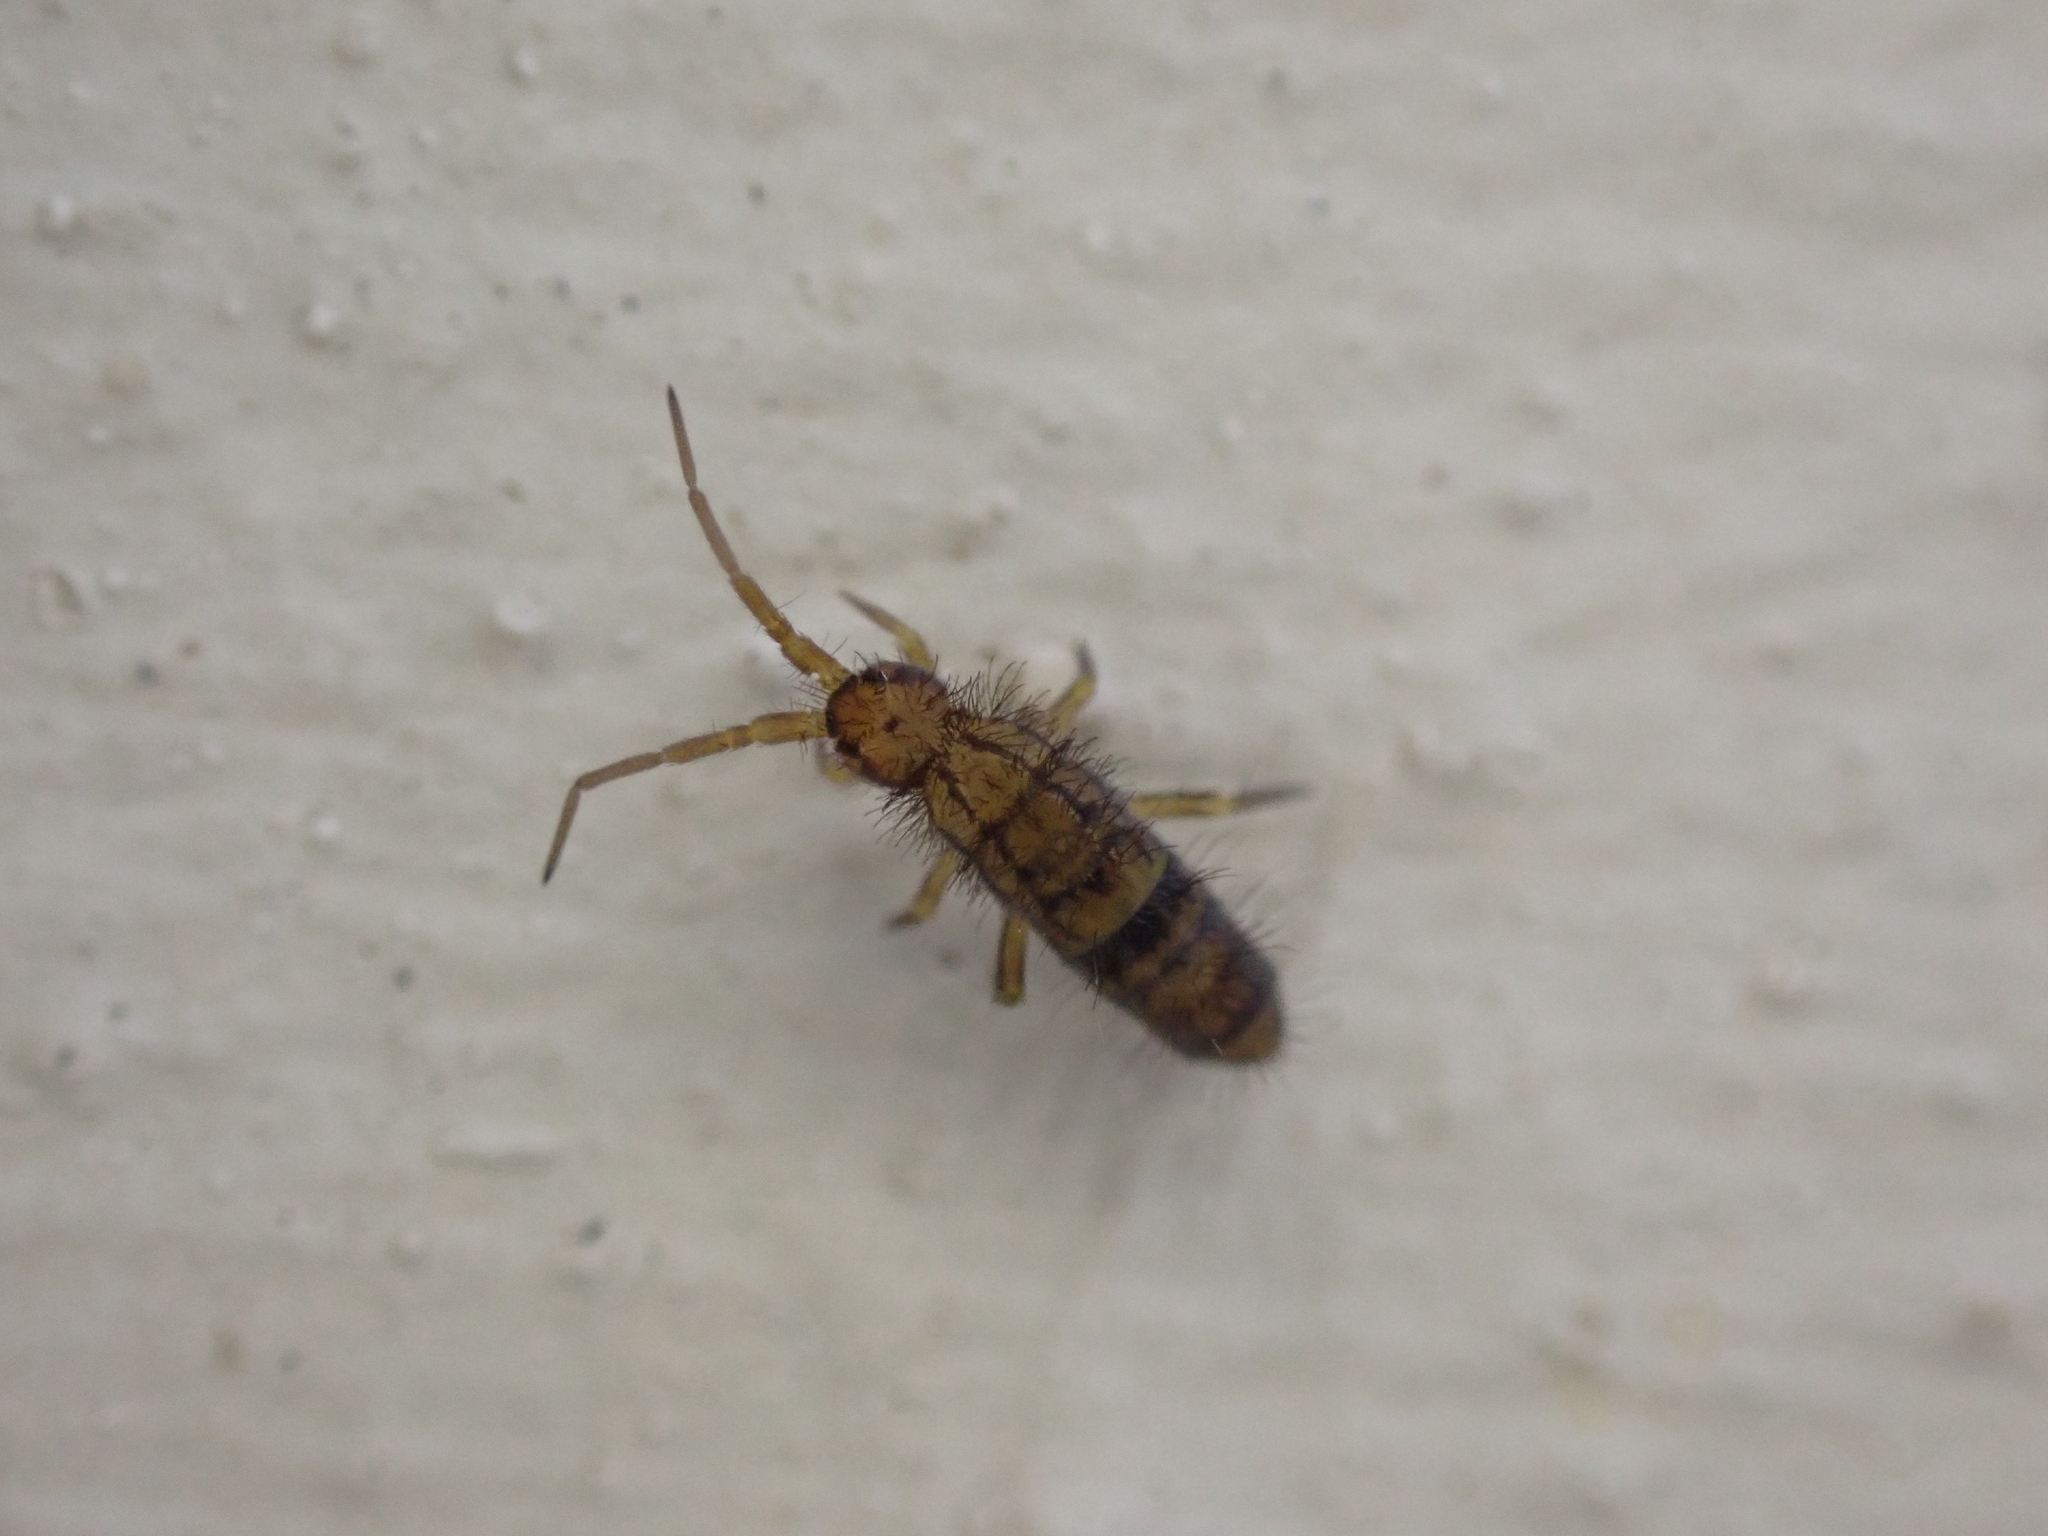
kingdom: Animalia
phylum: Arthropoda
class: Collembola
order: Entomobryomorpha
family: Orchesellidae
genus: Orchesella
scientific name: Orchesella cincta
